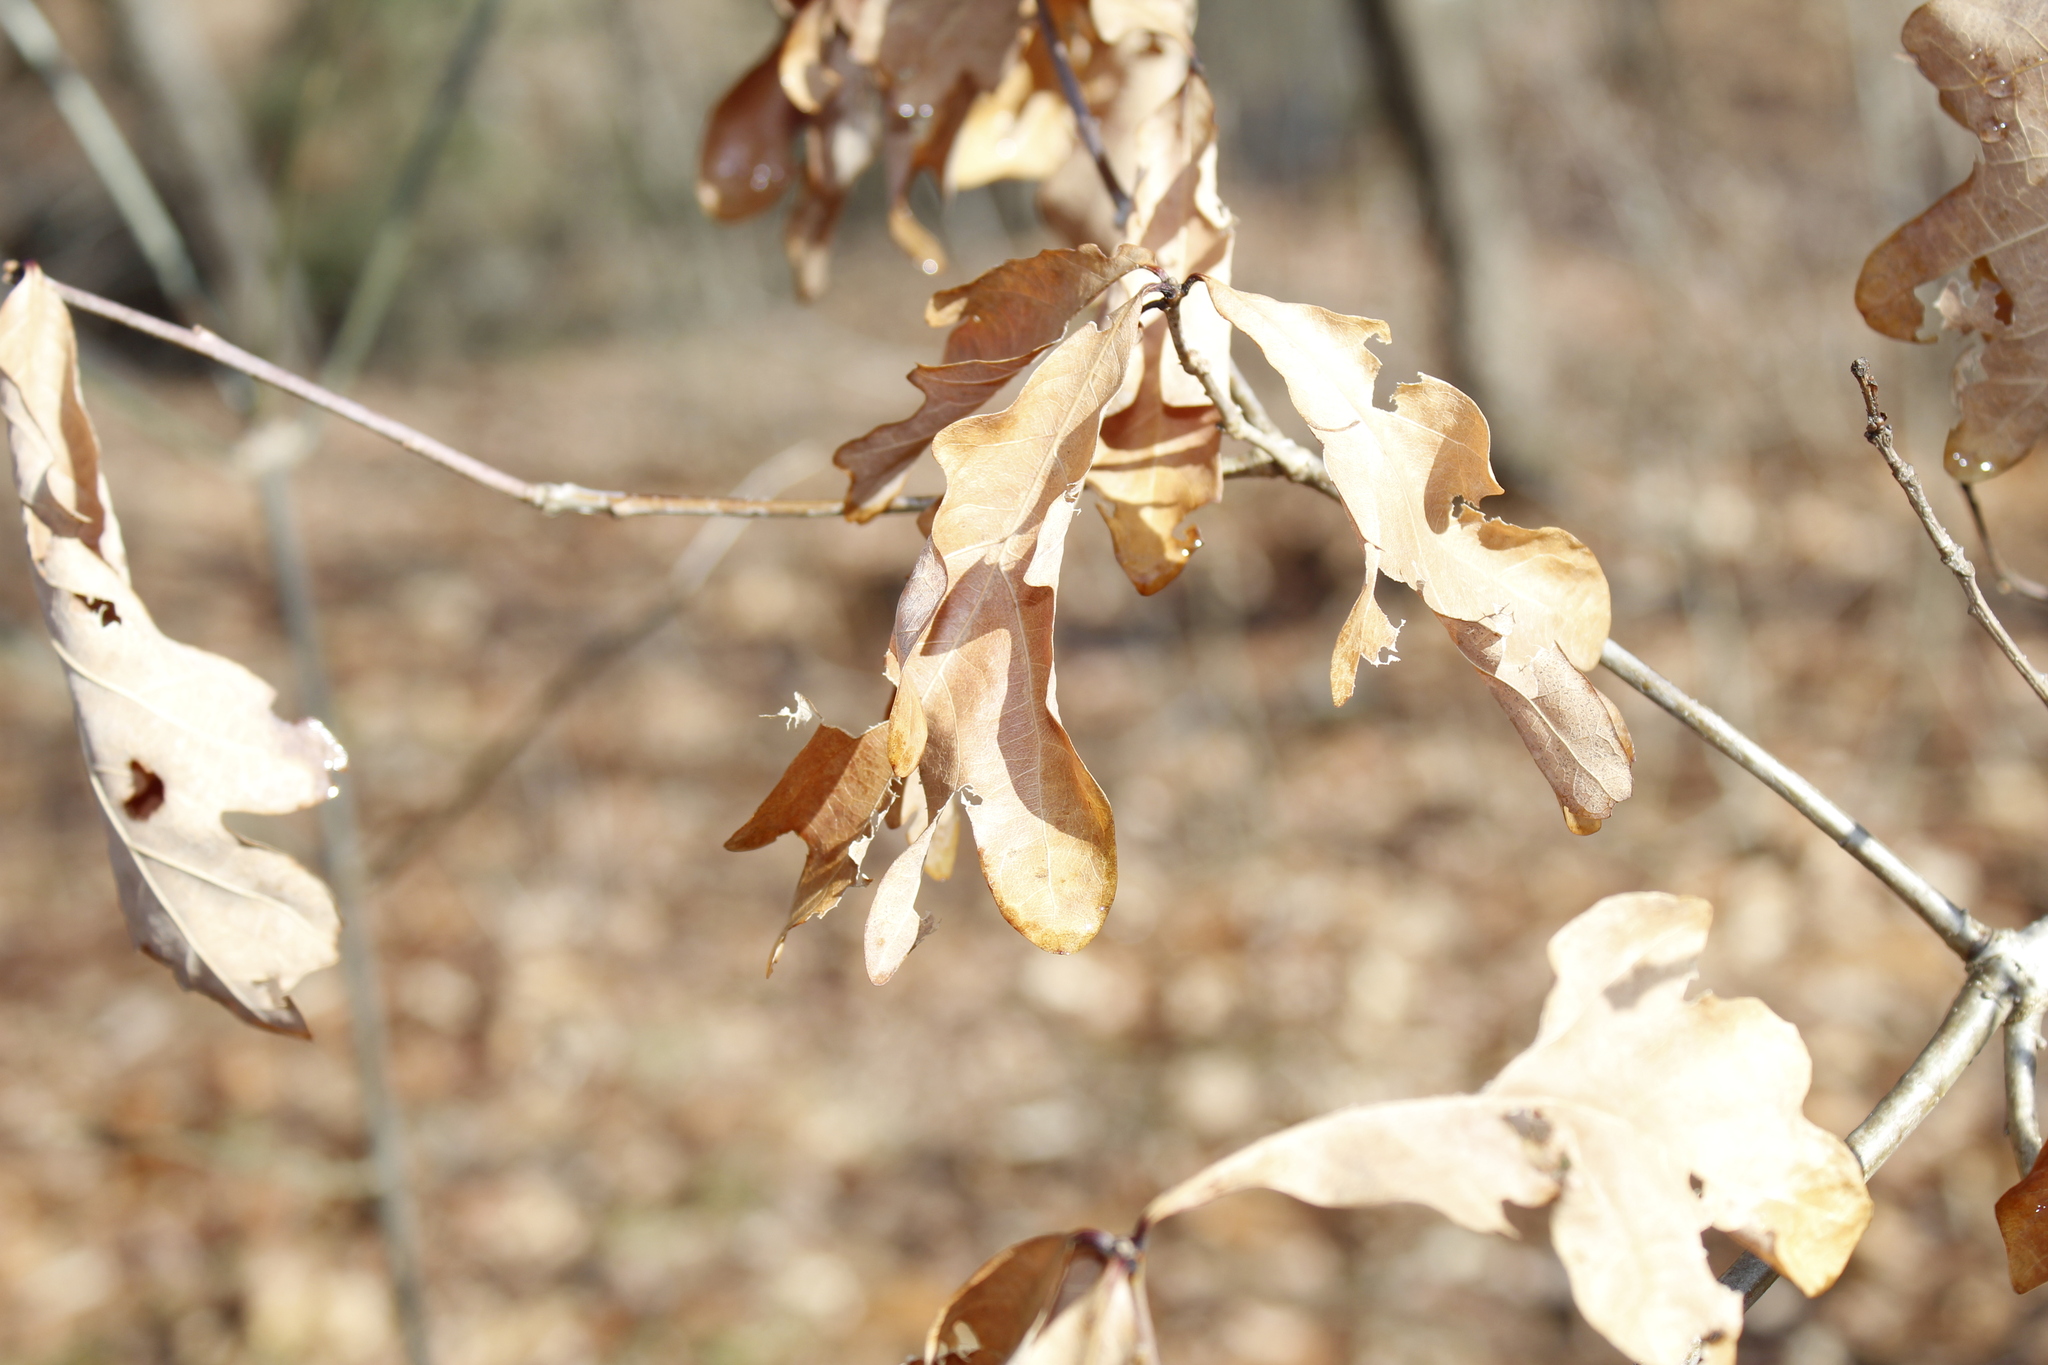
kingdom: Plantae
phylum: Tracheophyta
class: Magnoliopsida
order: Fagales
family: Fagaceae
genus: Quercus
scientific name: Quercus alba
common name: White oak
